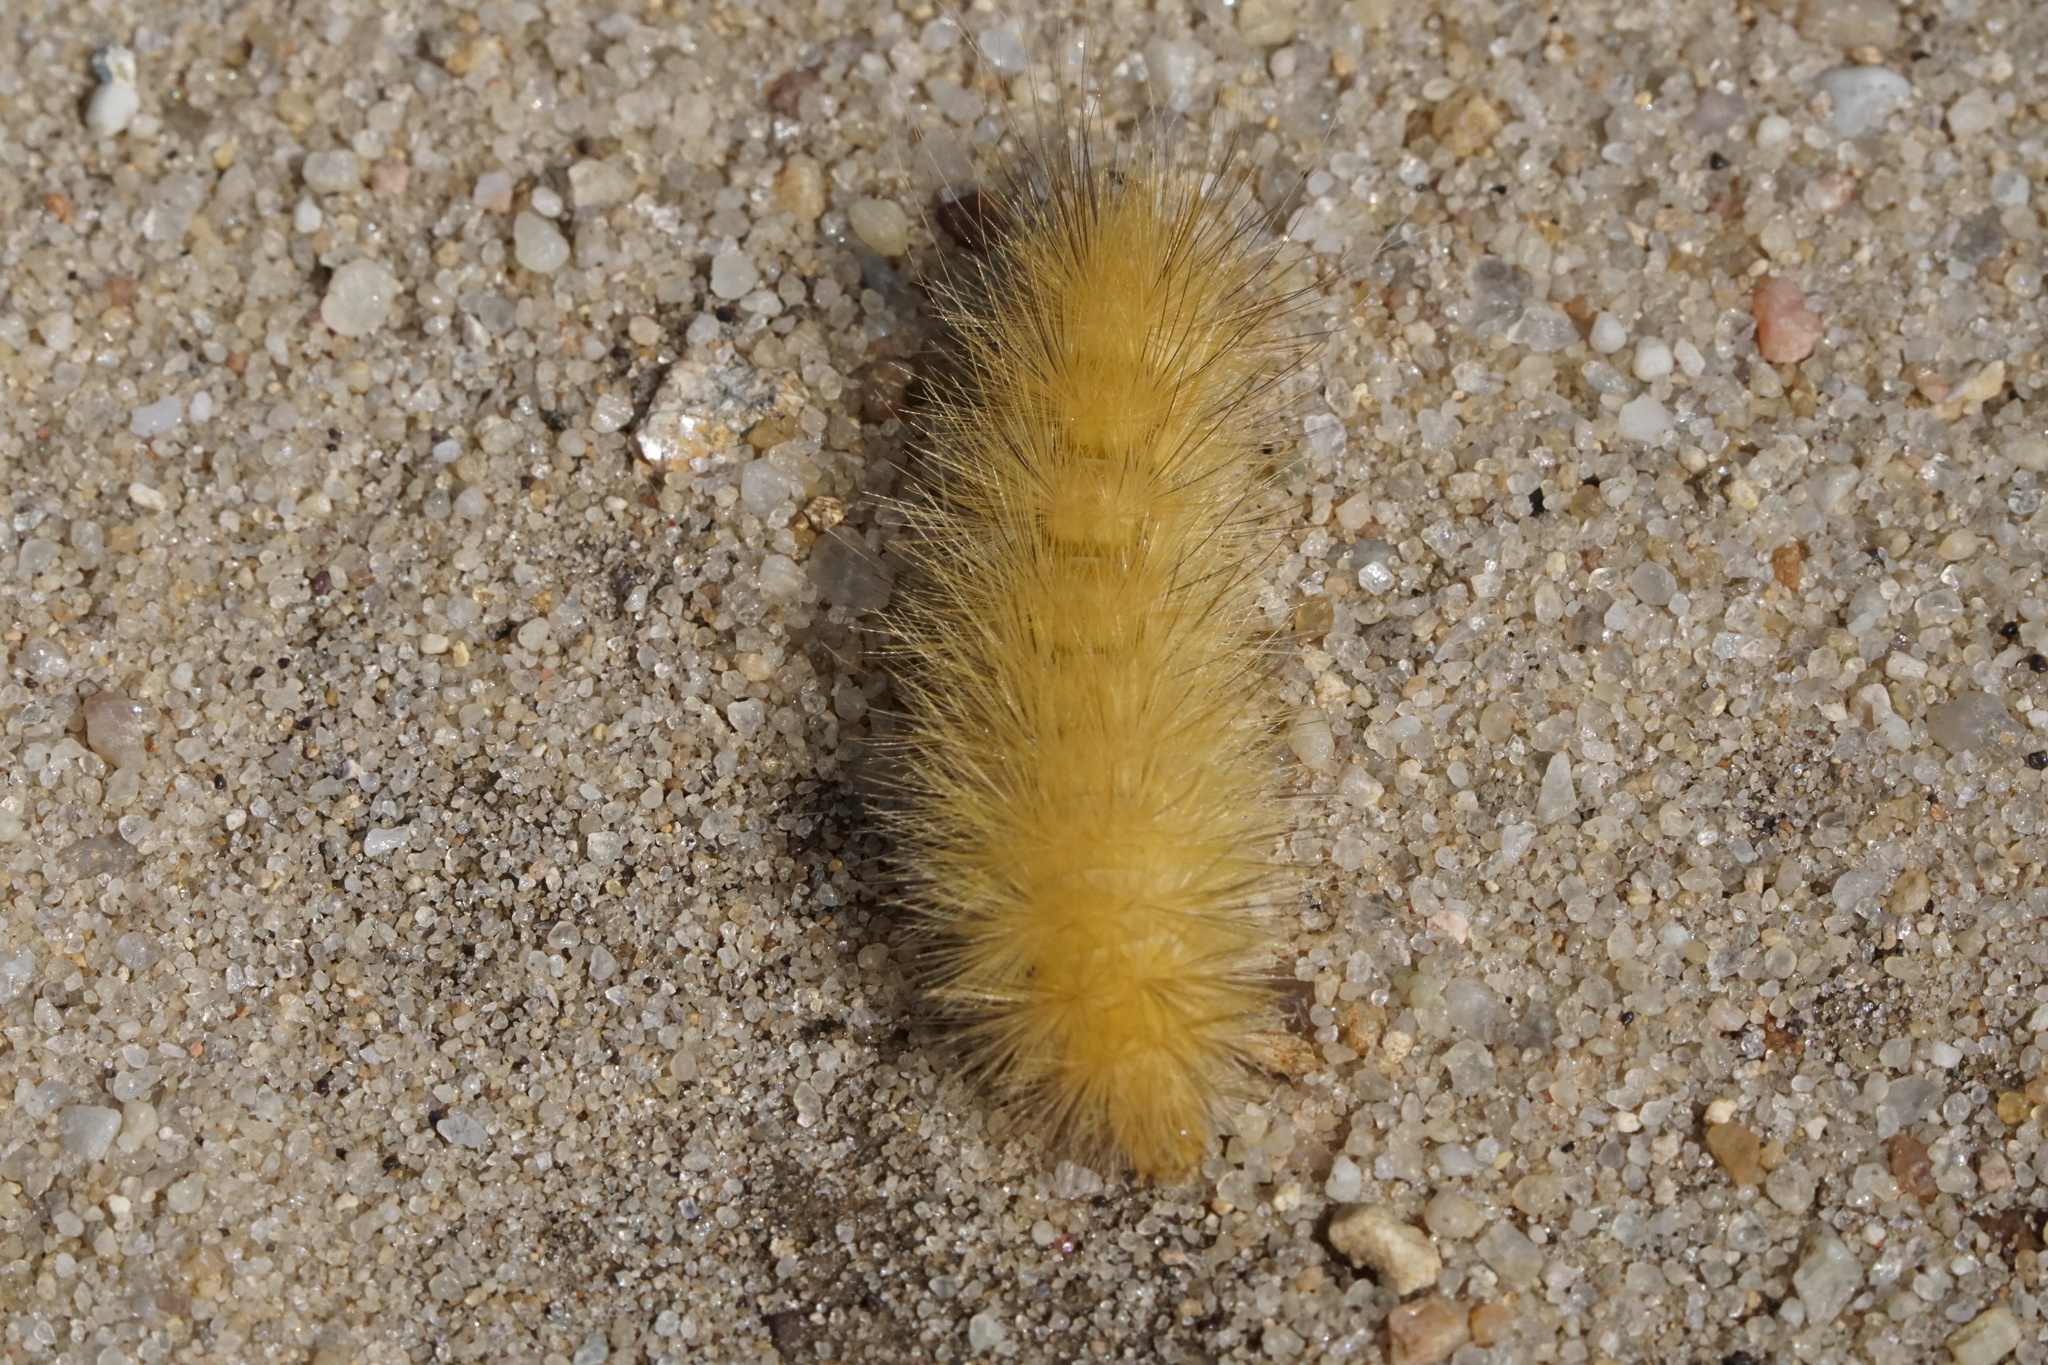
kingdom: Animalia
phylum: Arthropoda
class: Insecta
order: Lepidoptera
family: Erebidae
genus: Spilosoma
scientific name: Spilosoma virginica
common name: Virginia tiger moth
